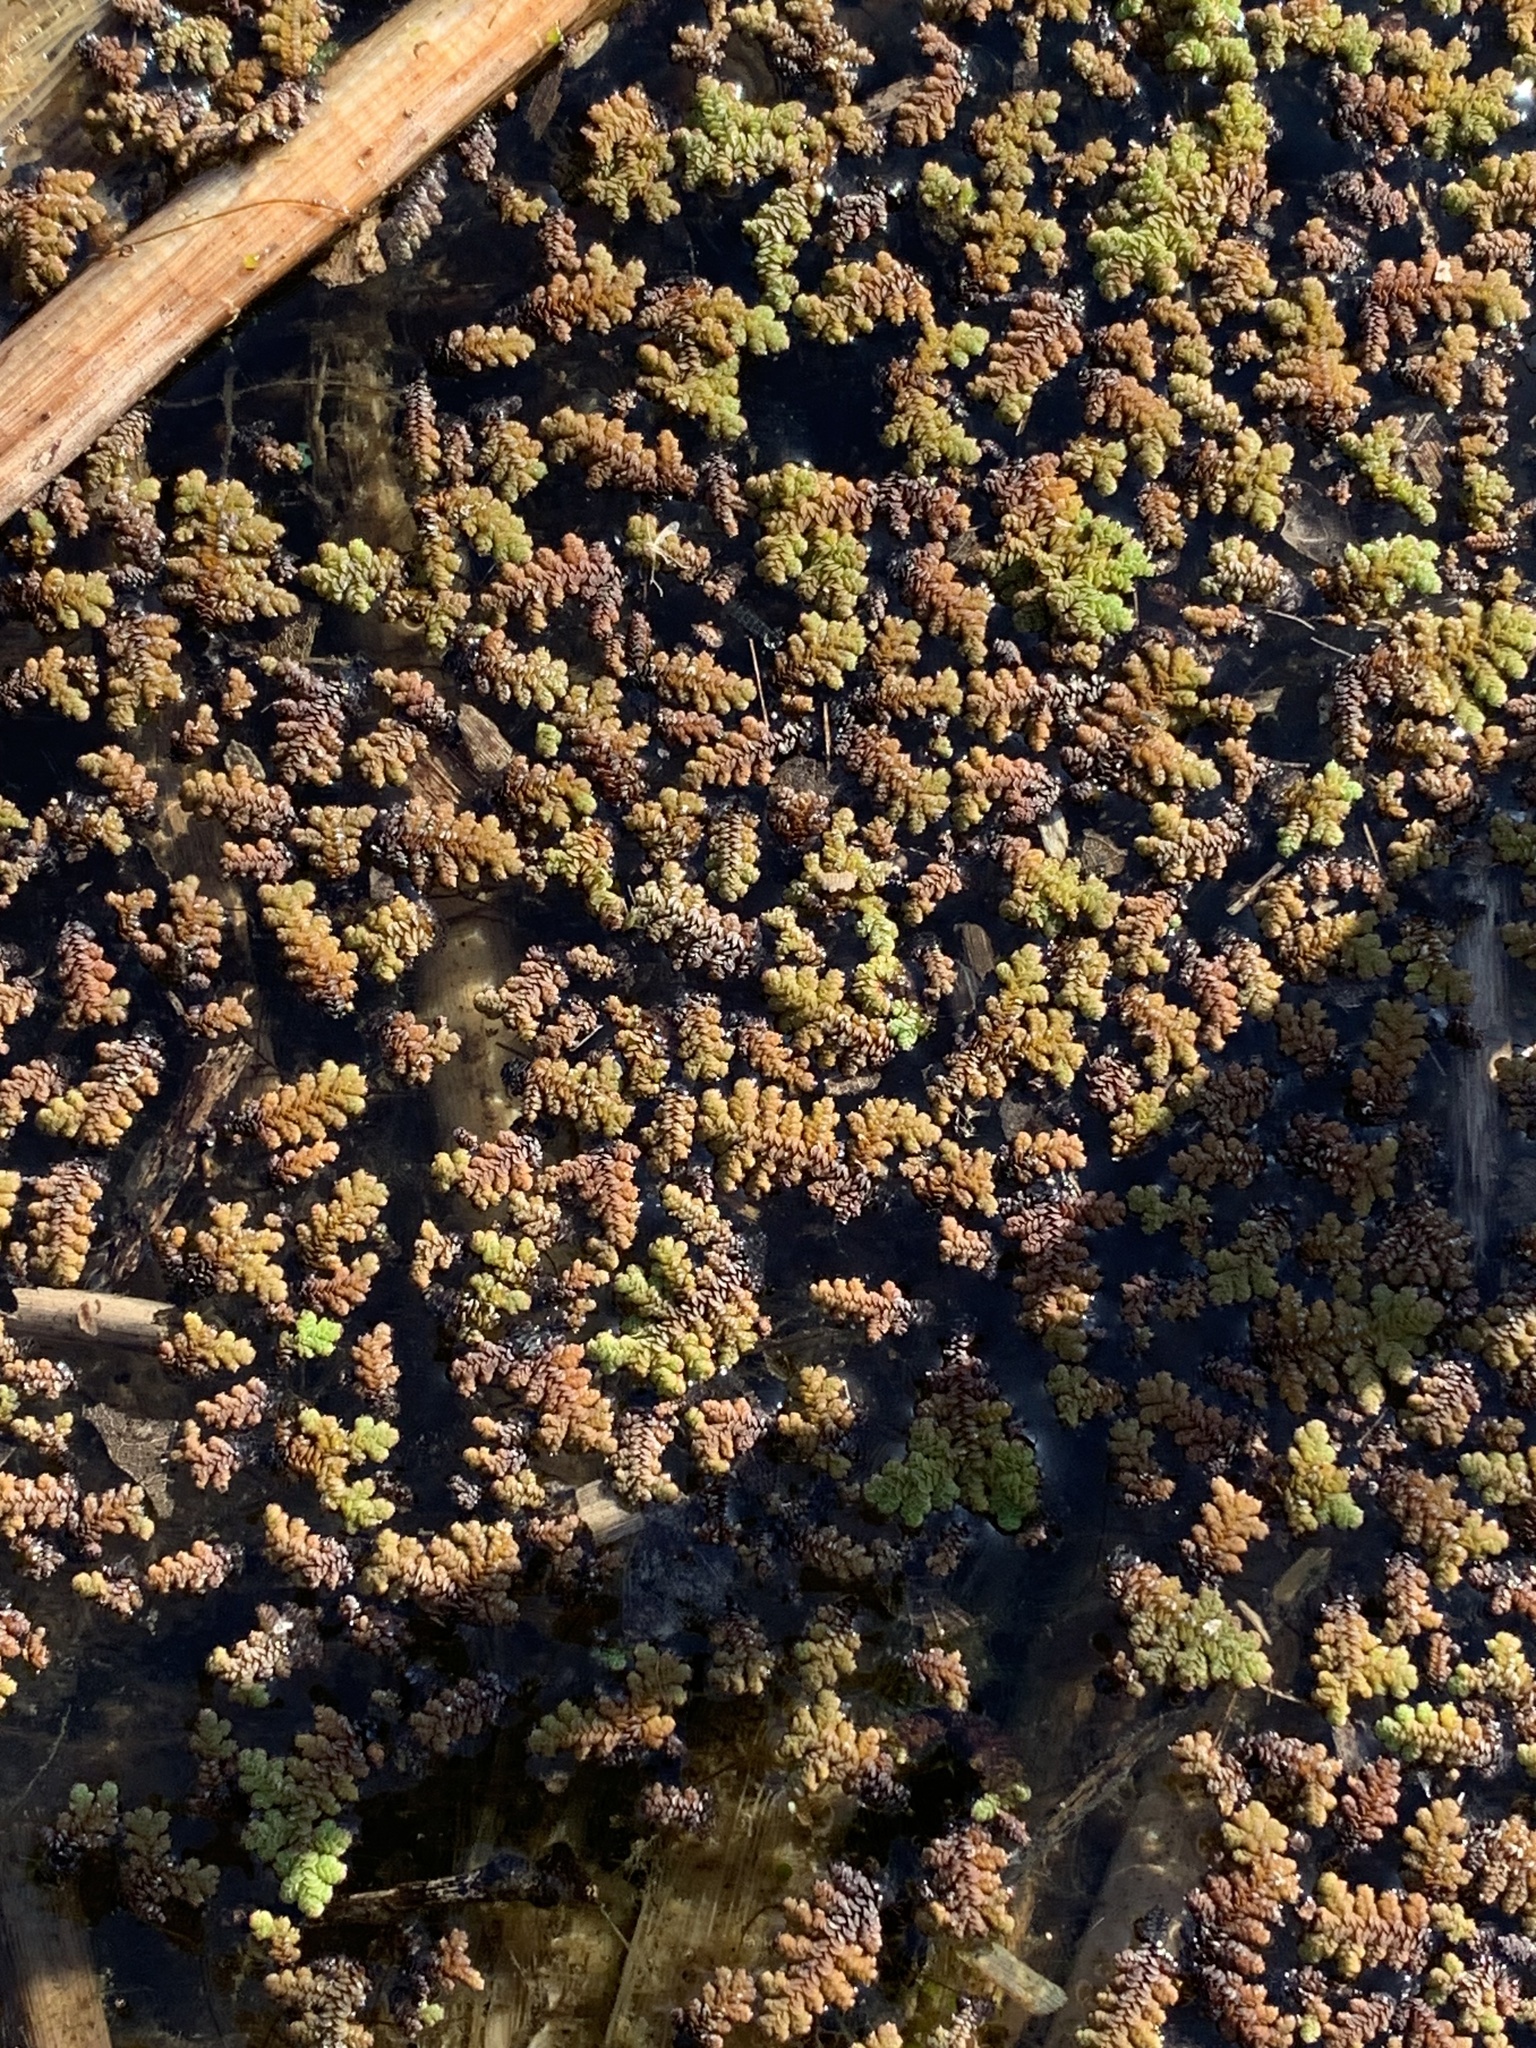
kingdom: Plantae
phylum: Tracheophyta
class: Polypodiopsida
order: Salviniales
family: Salviniaceae
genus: Azolla
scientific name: Azolla filiculoides
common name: Water fern
